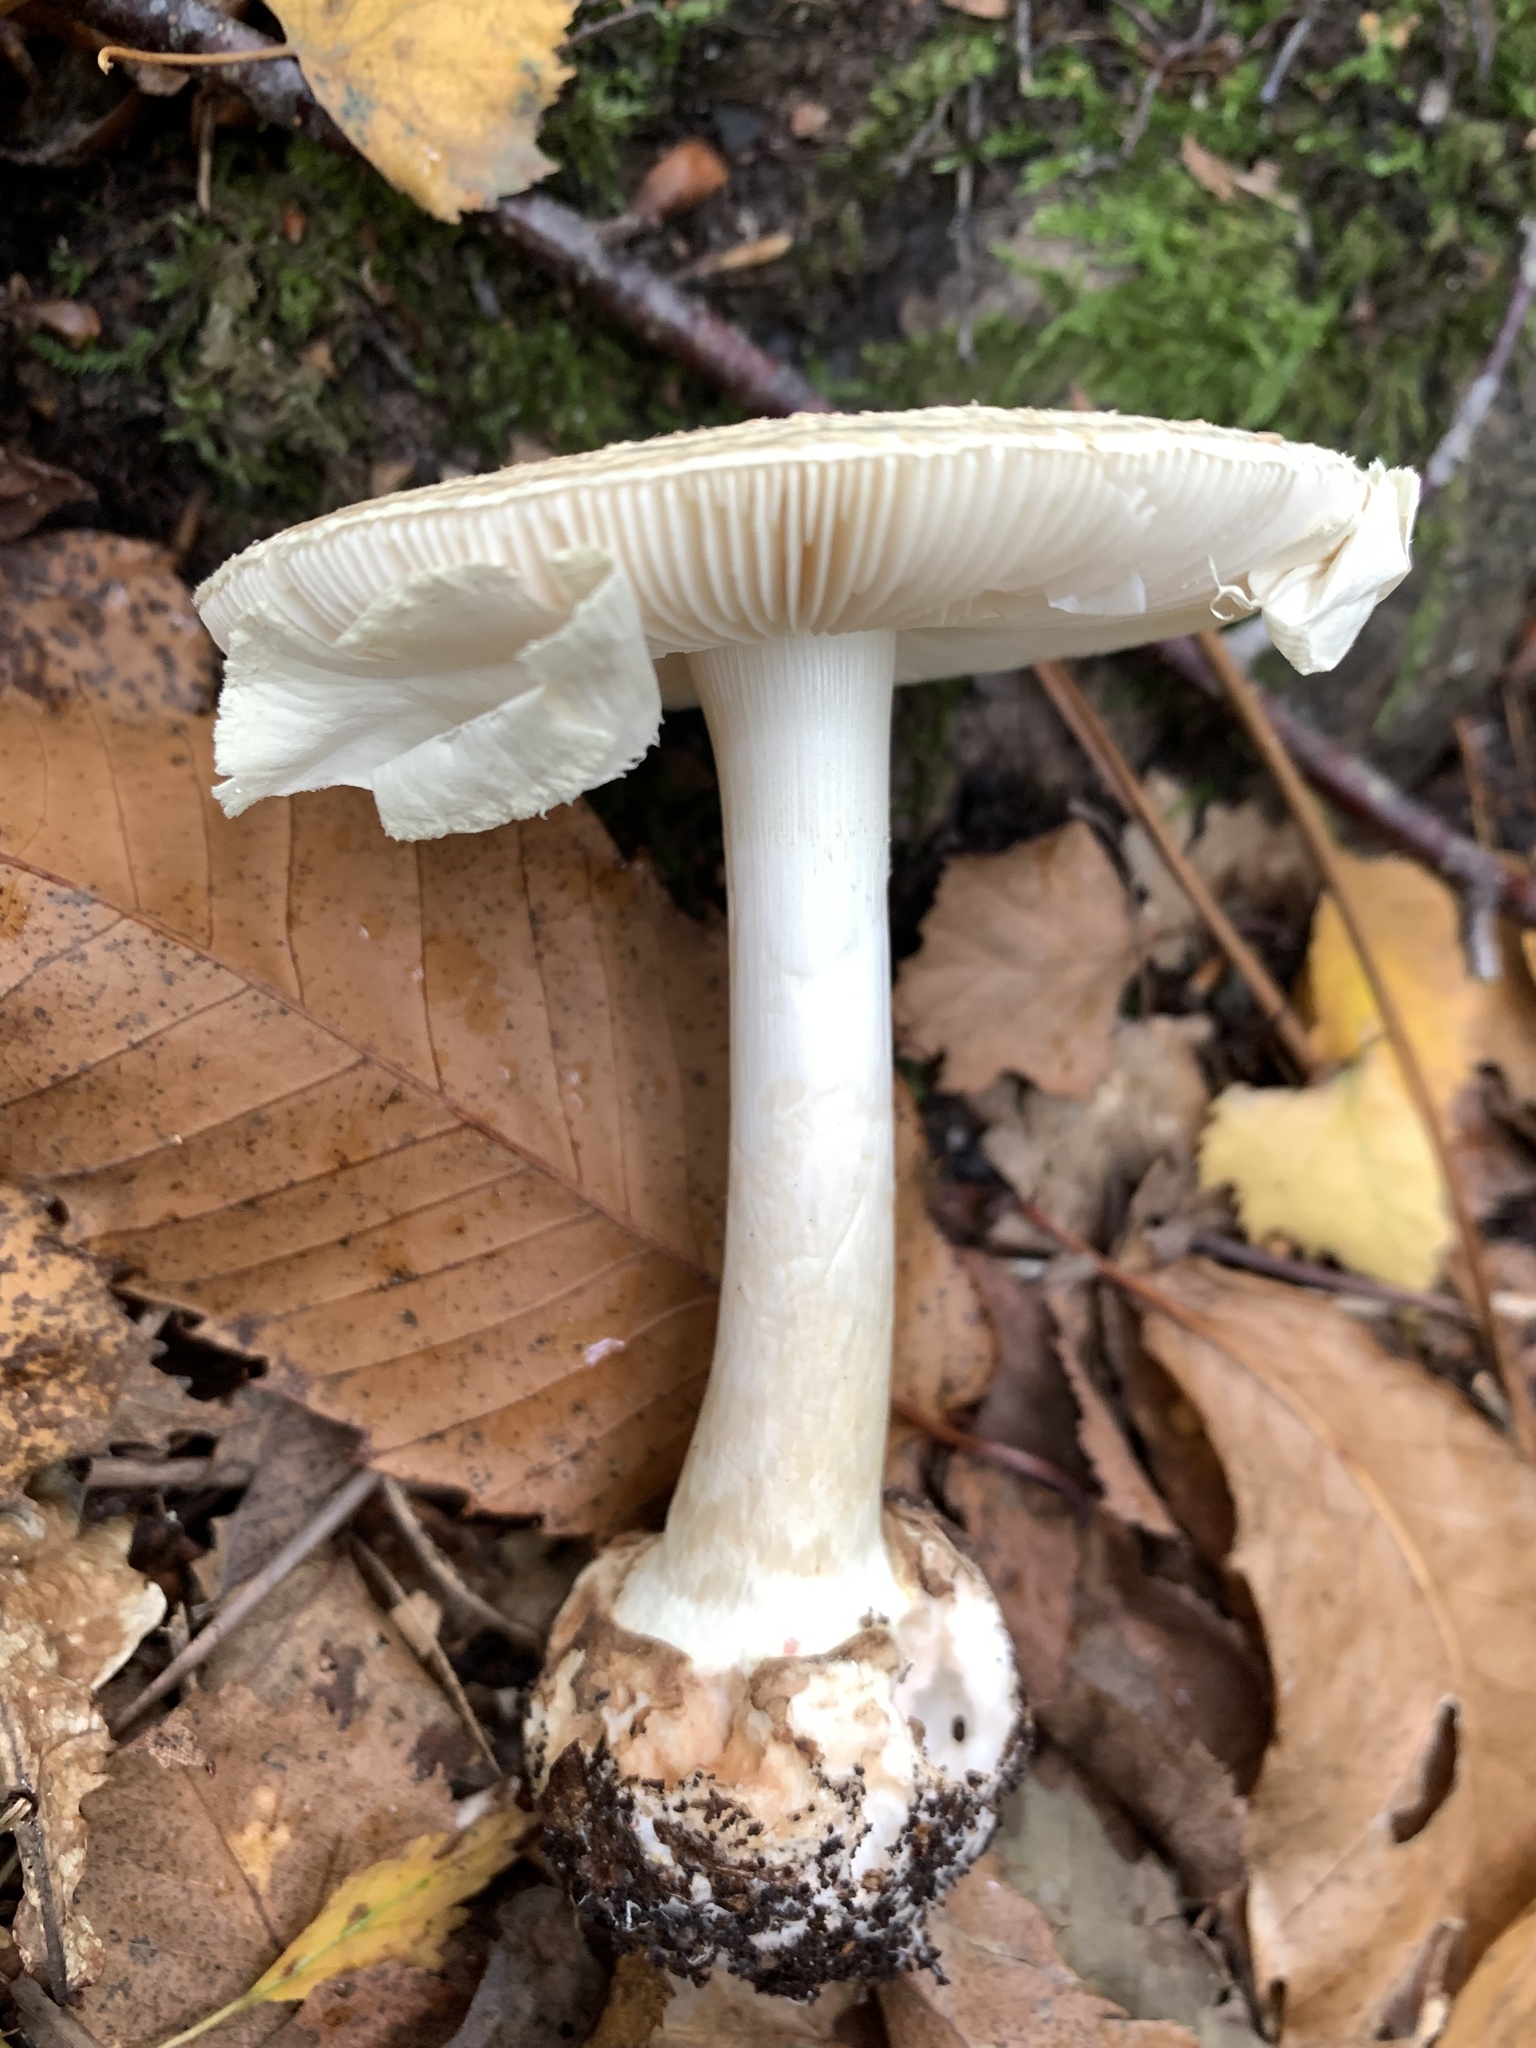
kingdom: Fungi
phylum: Basidiomycota
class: Agaricomycetes
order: Agaricales
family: Amanitaceae
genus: Amanita
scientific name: Amanita citrina
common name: False death-cap
